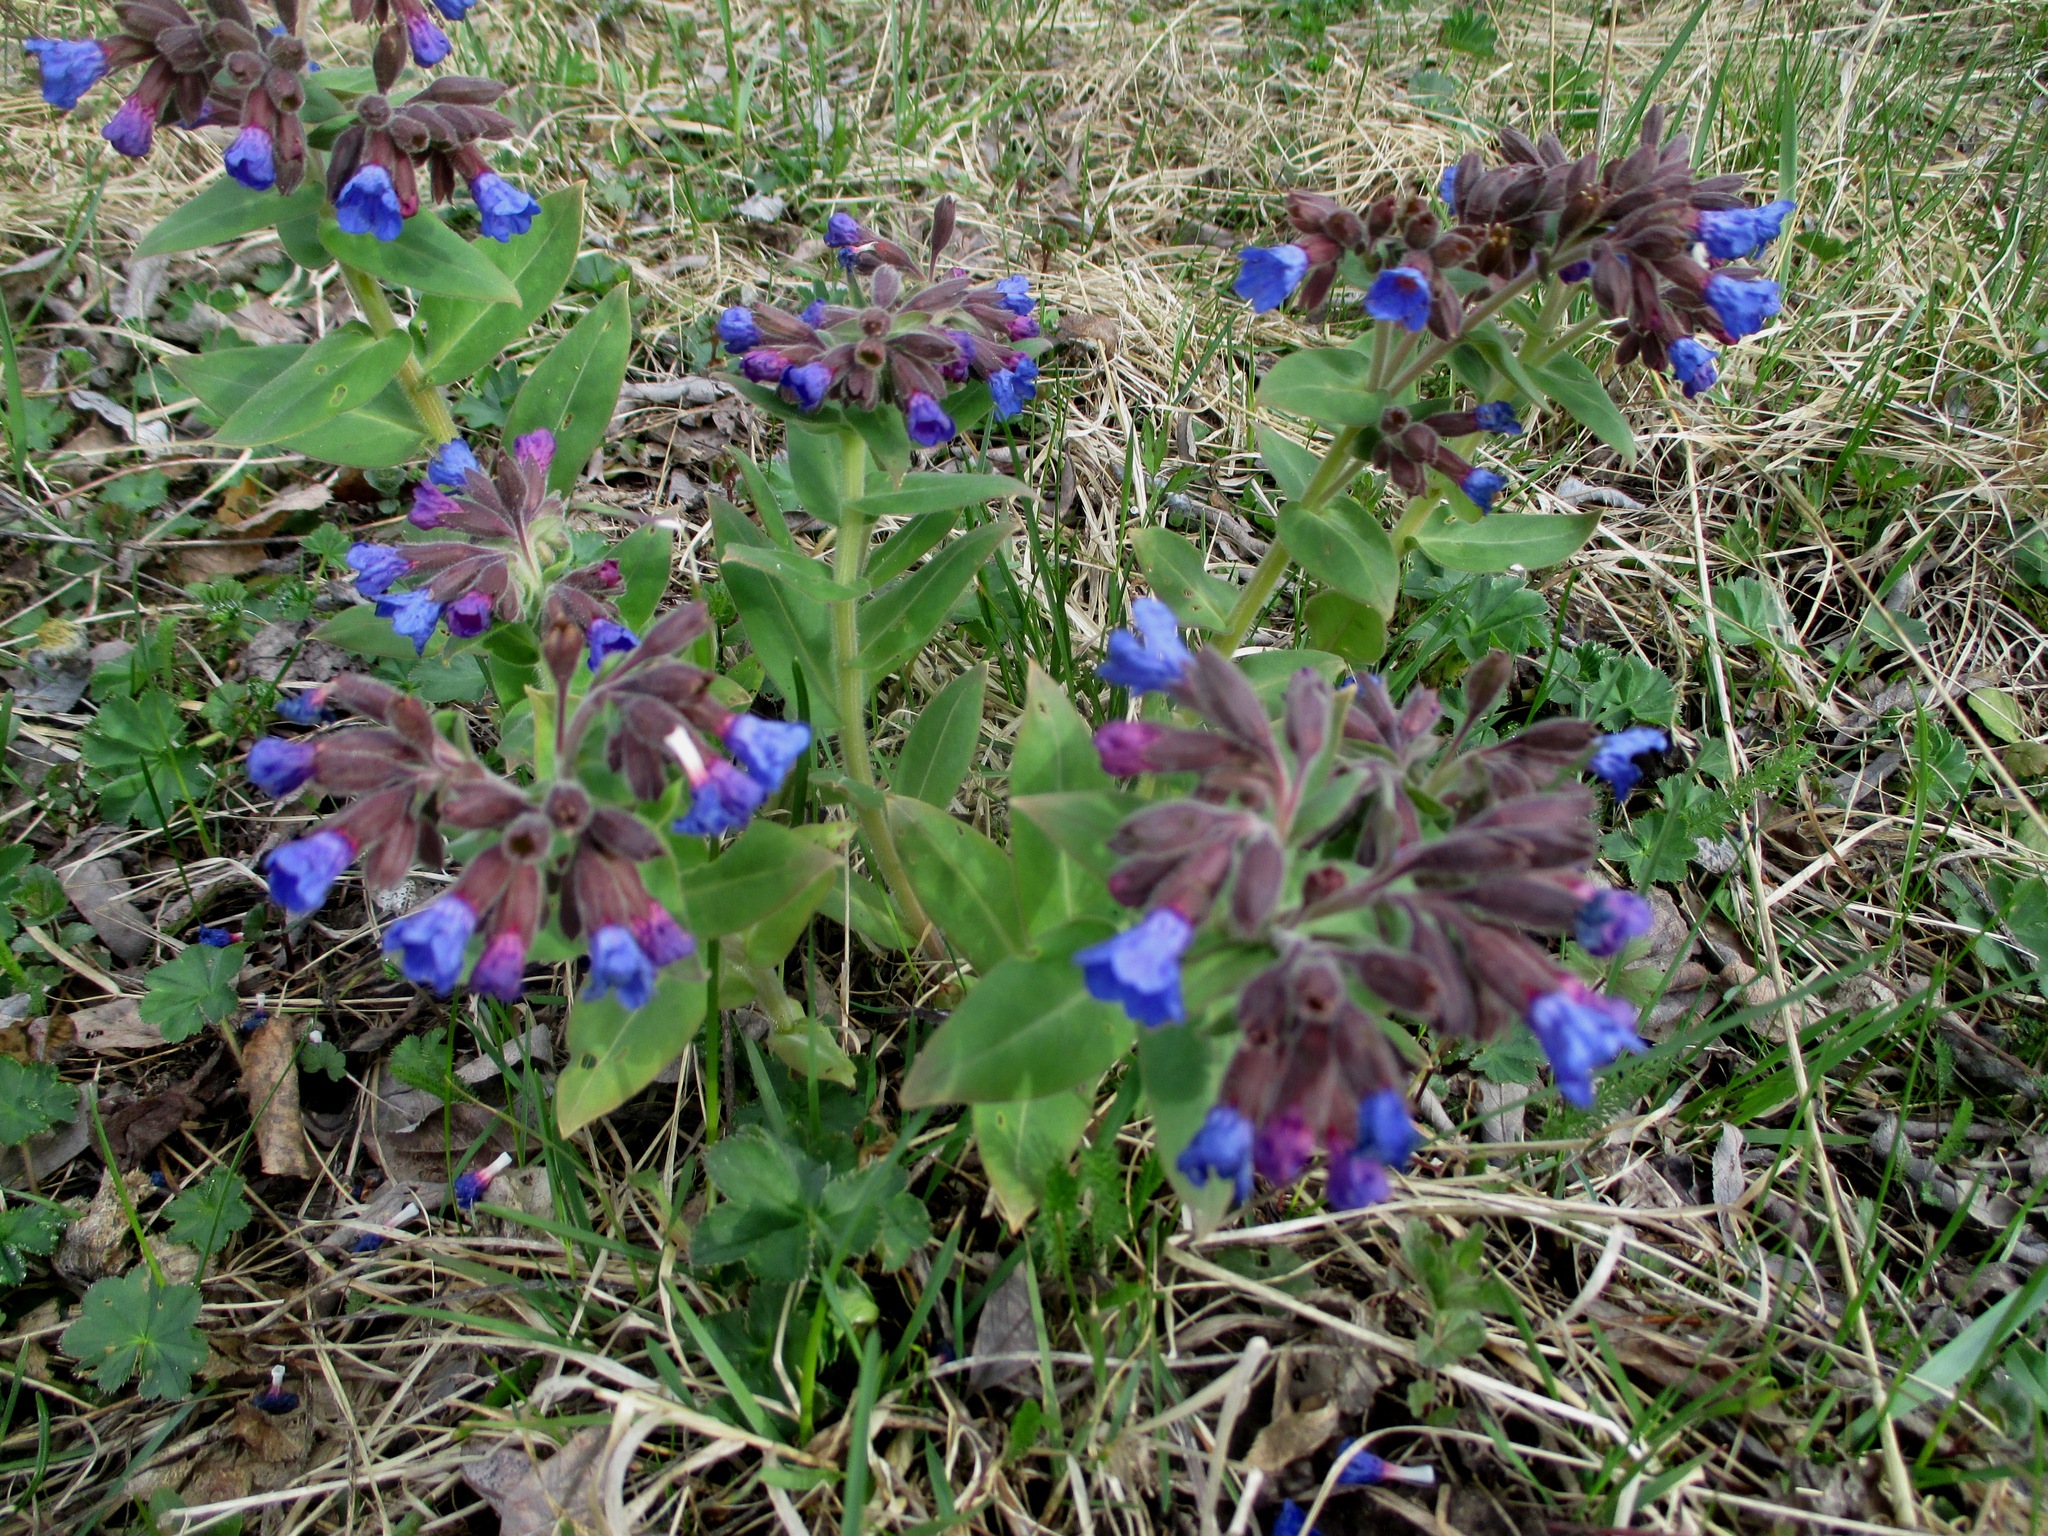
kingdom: Plantae
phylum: Tracheophyta
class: Magnoliopsida
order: Boraginales
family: Boraginaceae
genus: Pulmonaria
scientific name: Pulmonaria mollis
